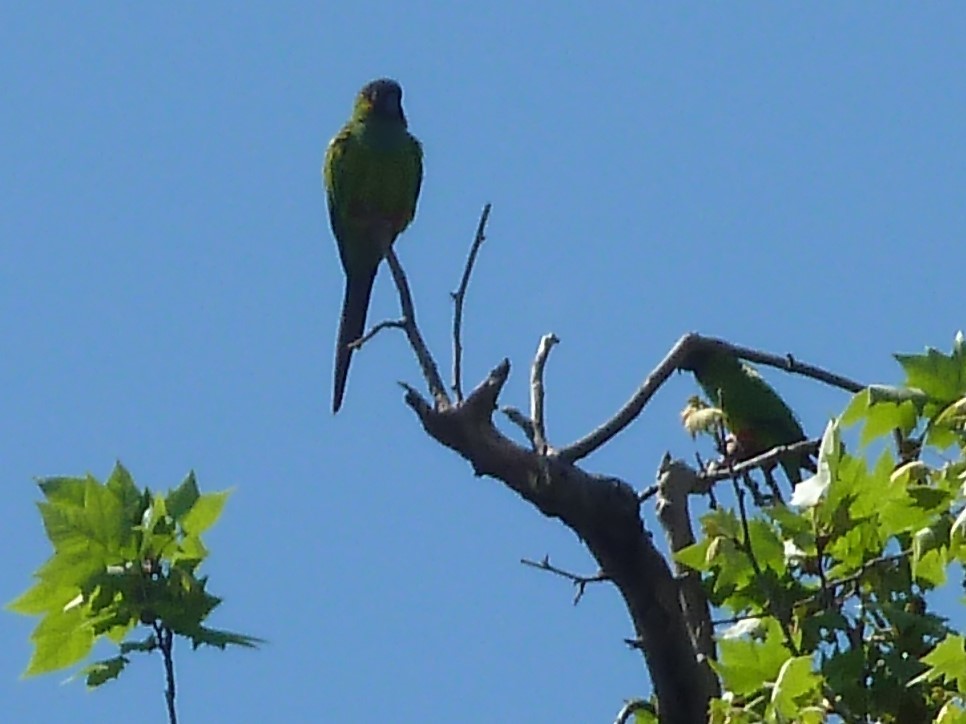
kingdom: Animalia
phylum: Chordata
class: Aves
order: Psittaciformes
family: Psittacidae
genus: Nandayus
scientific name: Nandayus nenday
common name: Nanday parakeet
